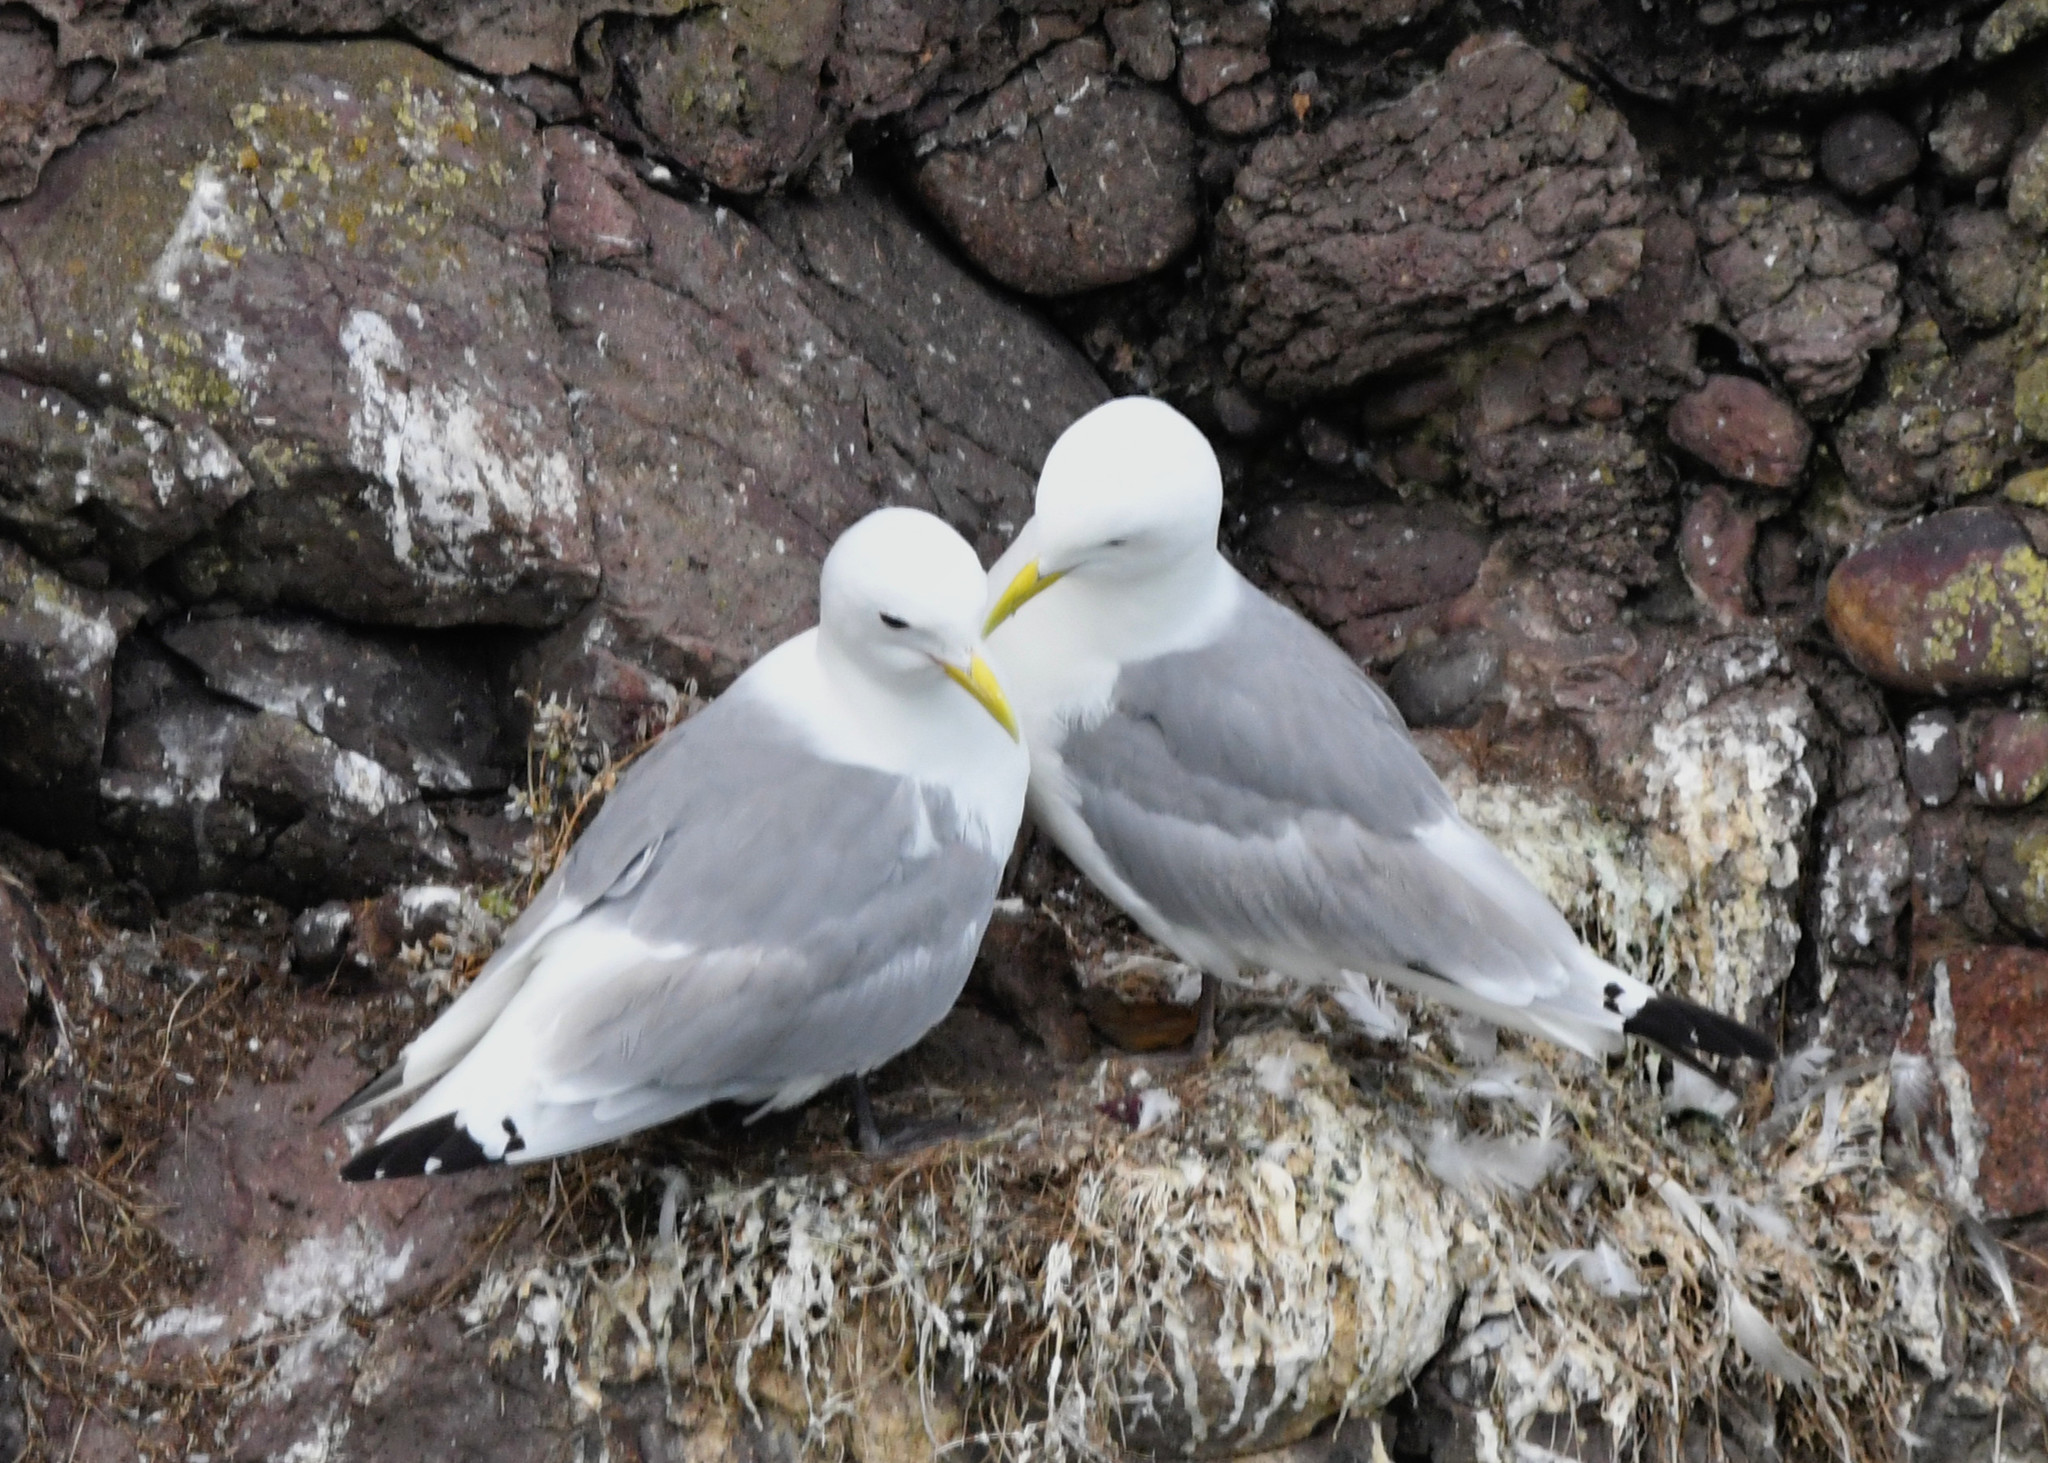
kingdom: Animalia
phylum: Chordata
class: Aves
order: Charadriiformes
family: Laridae
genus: Rissa
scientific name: Rissa tridactyla
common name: Black-legged kittiwake
